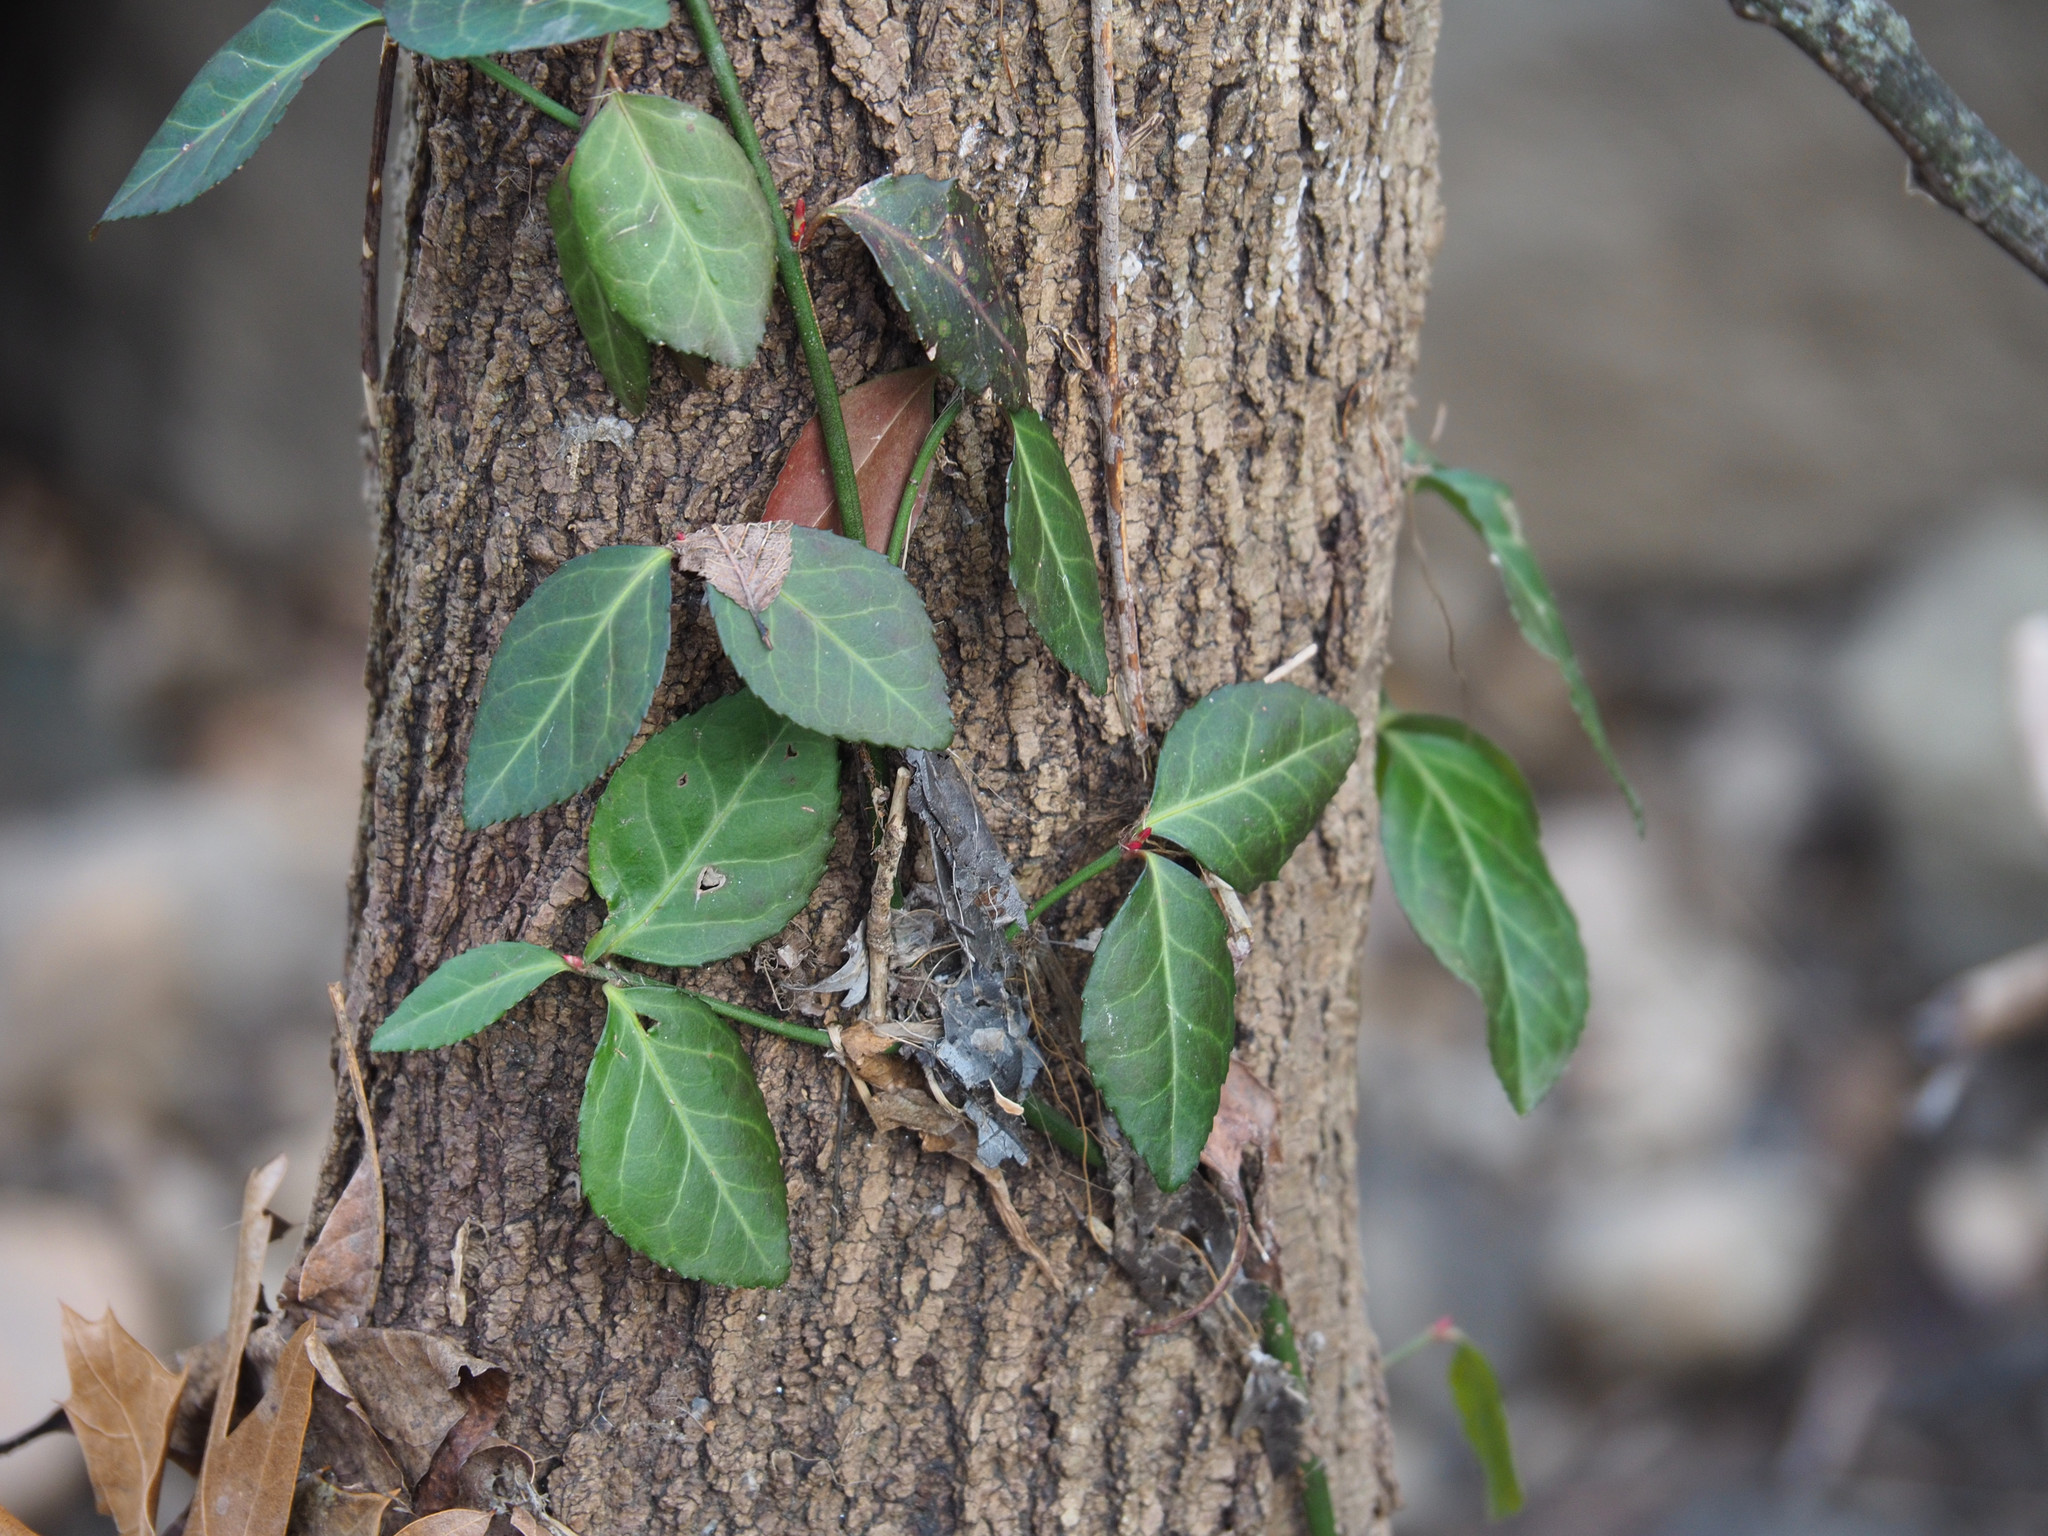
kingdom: Plantae
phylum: Tracheophyta
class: Magnoliopsida
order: Celastrales
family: Celastraceae
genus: Euonymus
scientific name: Euonymus fortunei
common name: Climbing euonymus
